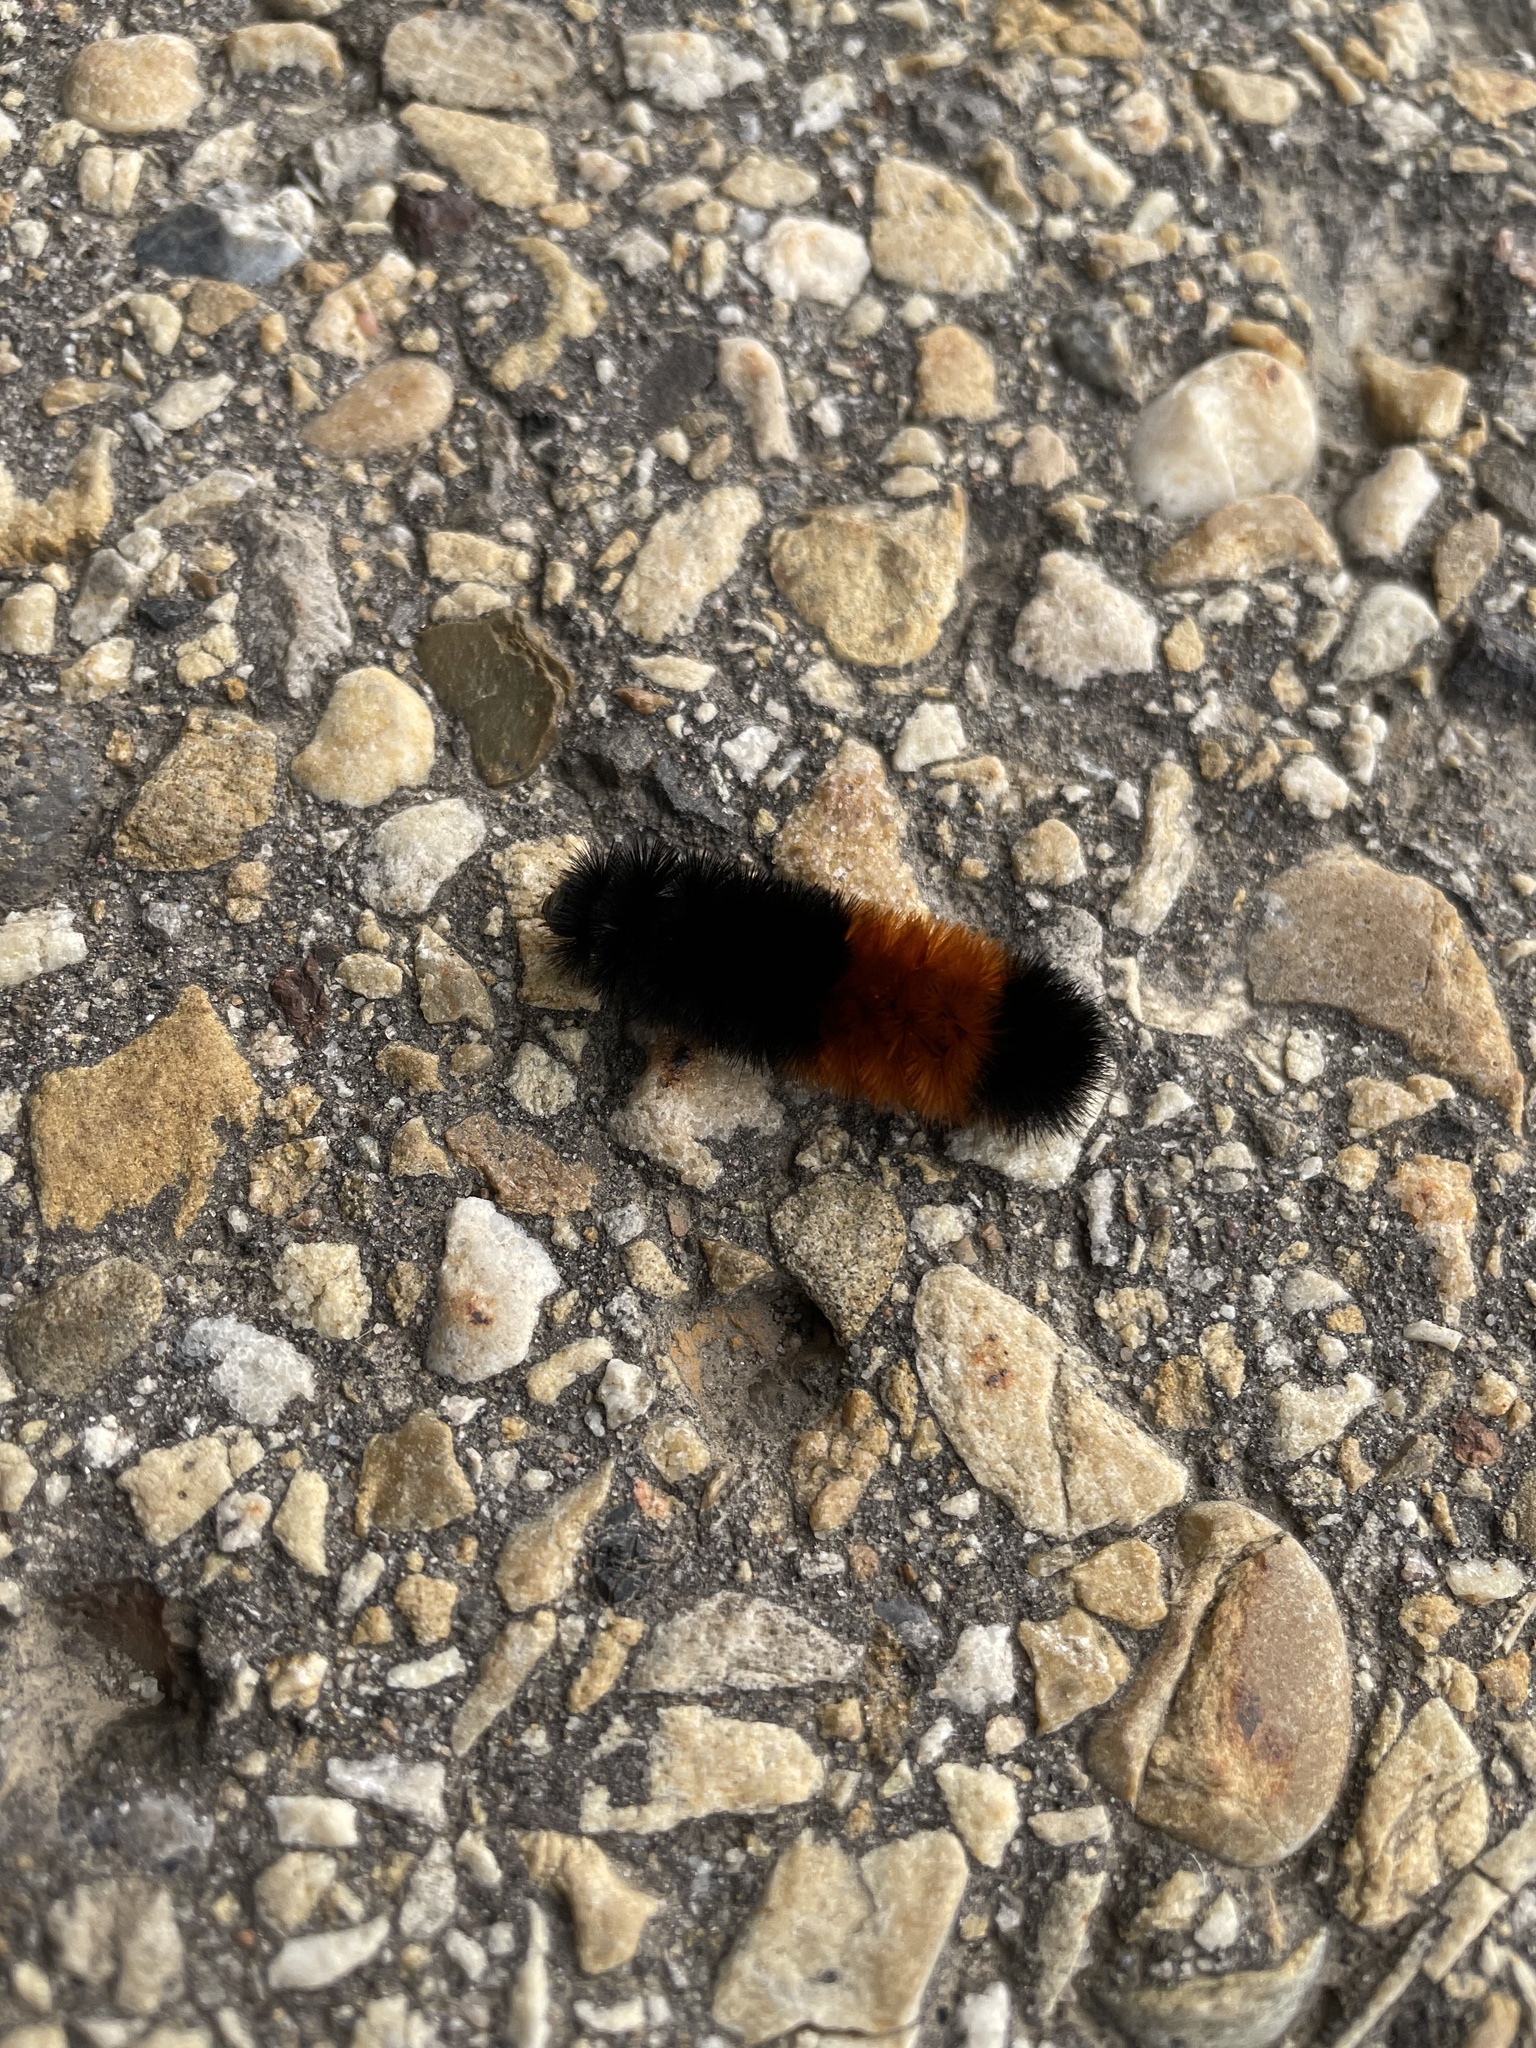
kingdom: Animalia
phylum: Arthropoda
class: Insecta
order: Lepidoptera
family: Erebidae
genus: Pyrrharctia
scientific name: Pyrrharctia isabella
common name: Isabella tiger moth
